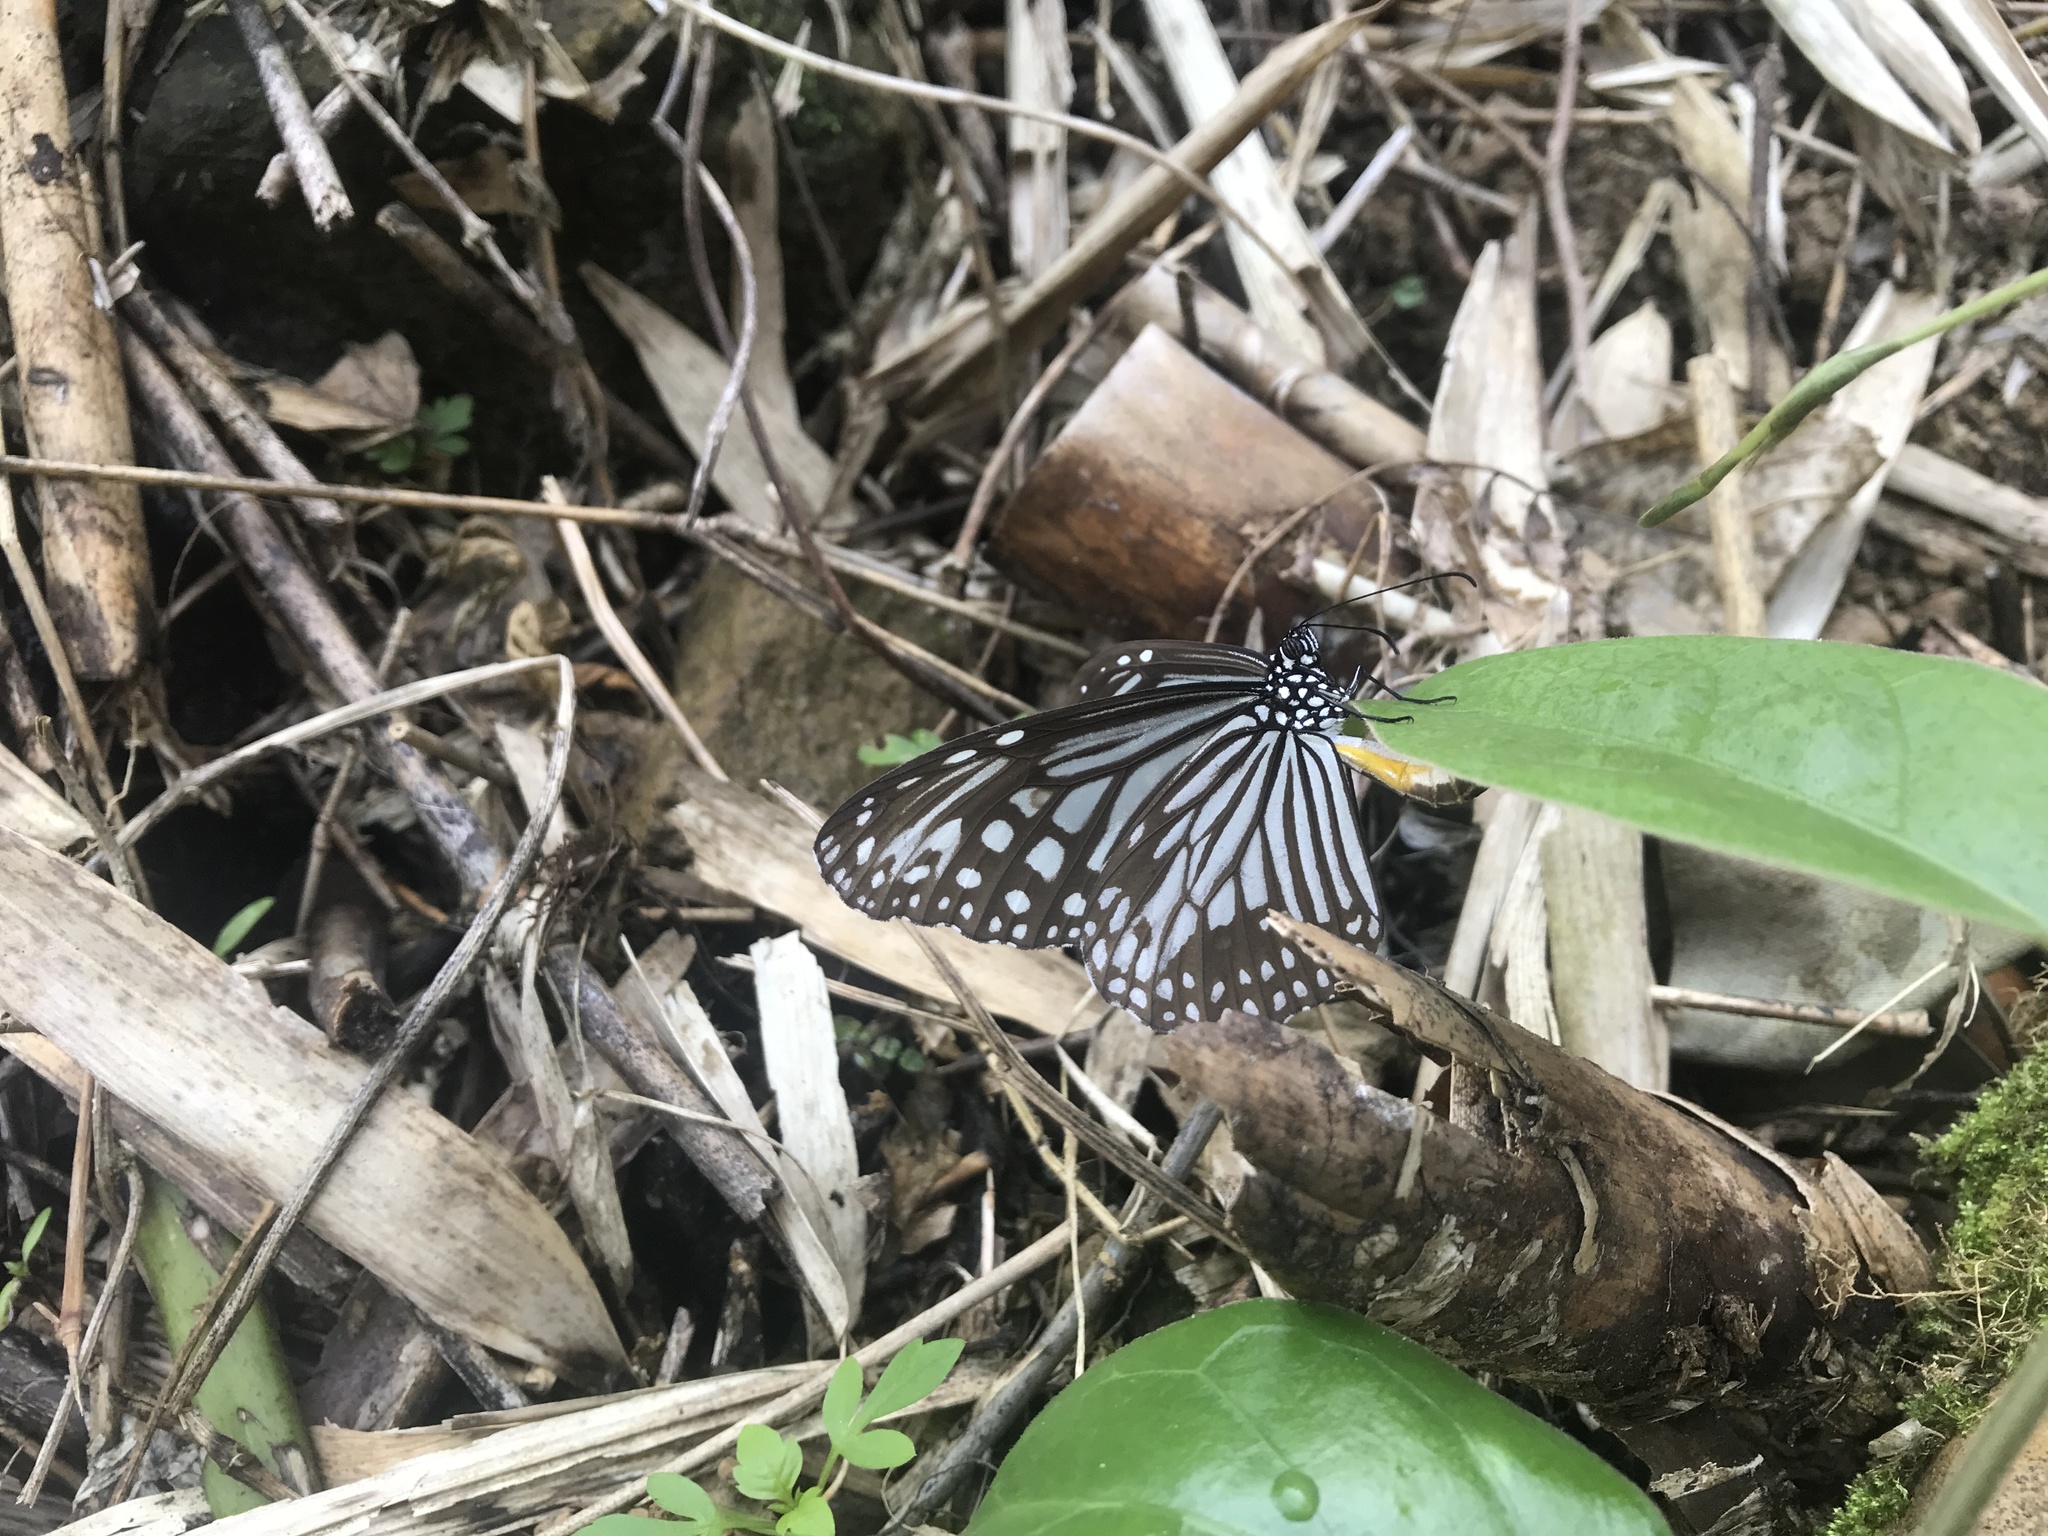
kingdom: Animalia
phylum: Arthropoda
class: Insecta
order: Lepidoptera
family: Nymphalidae
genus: Parantica
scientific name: Parantica aglea
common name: Glassy tiger
